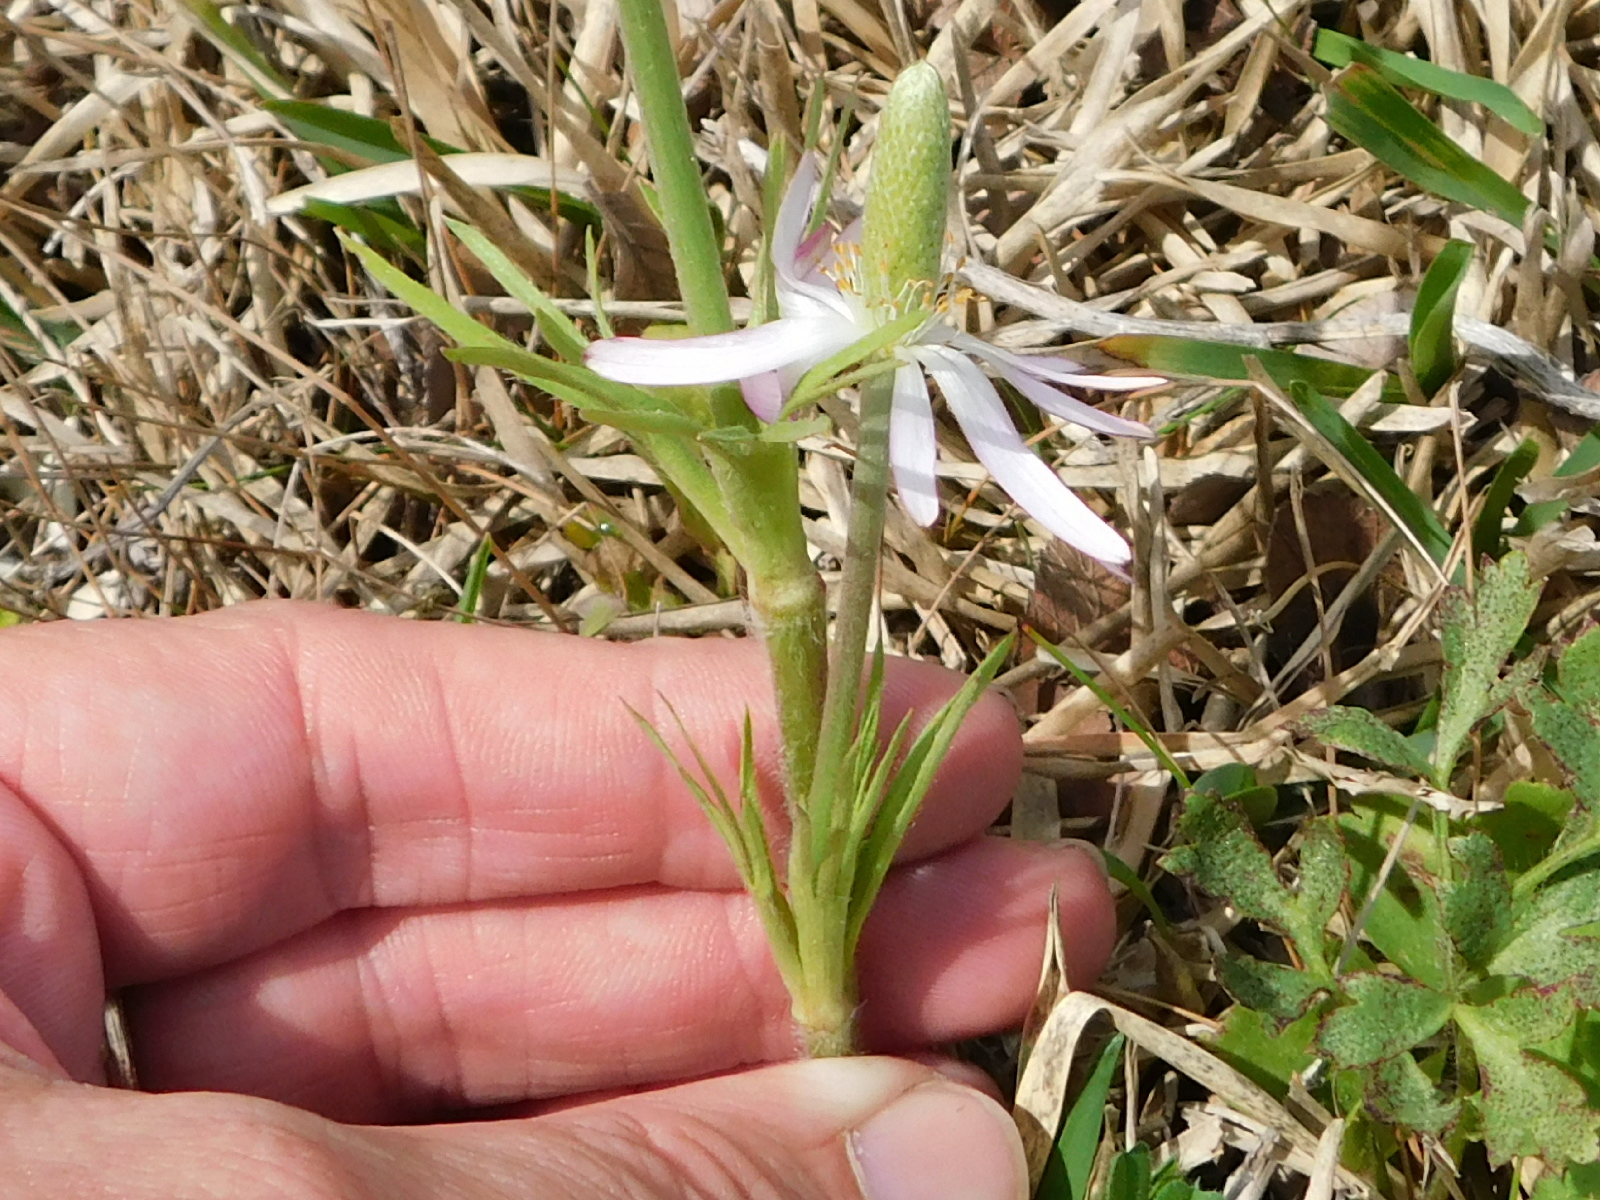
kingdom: Plantae
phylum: Tracheophyta
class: Magnoliopsida
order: Ranunculales
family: Ranunculaceae
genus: Anemone
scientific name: Anemone berlandieri
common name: Ten-petal anemone
